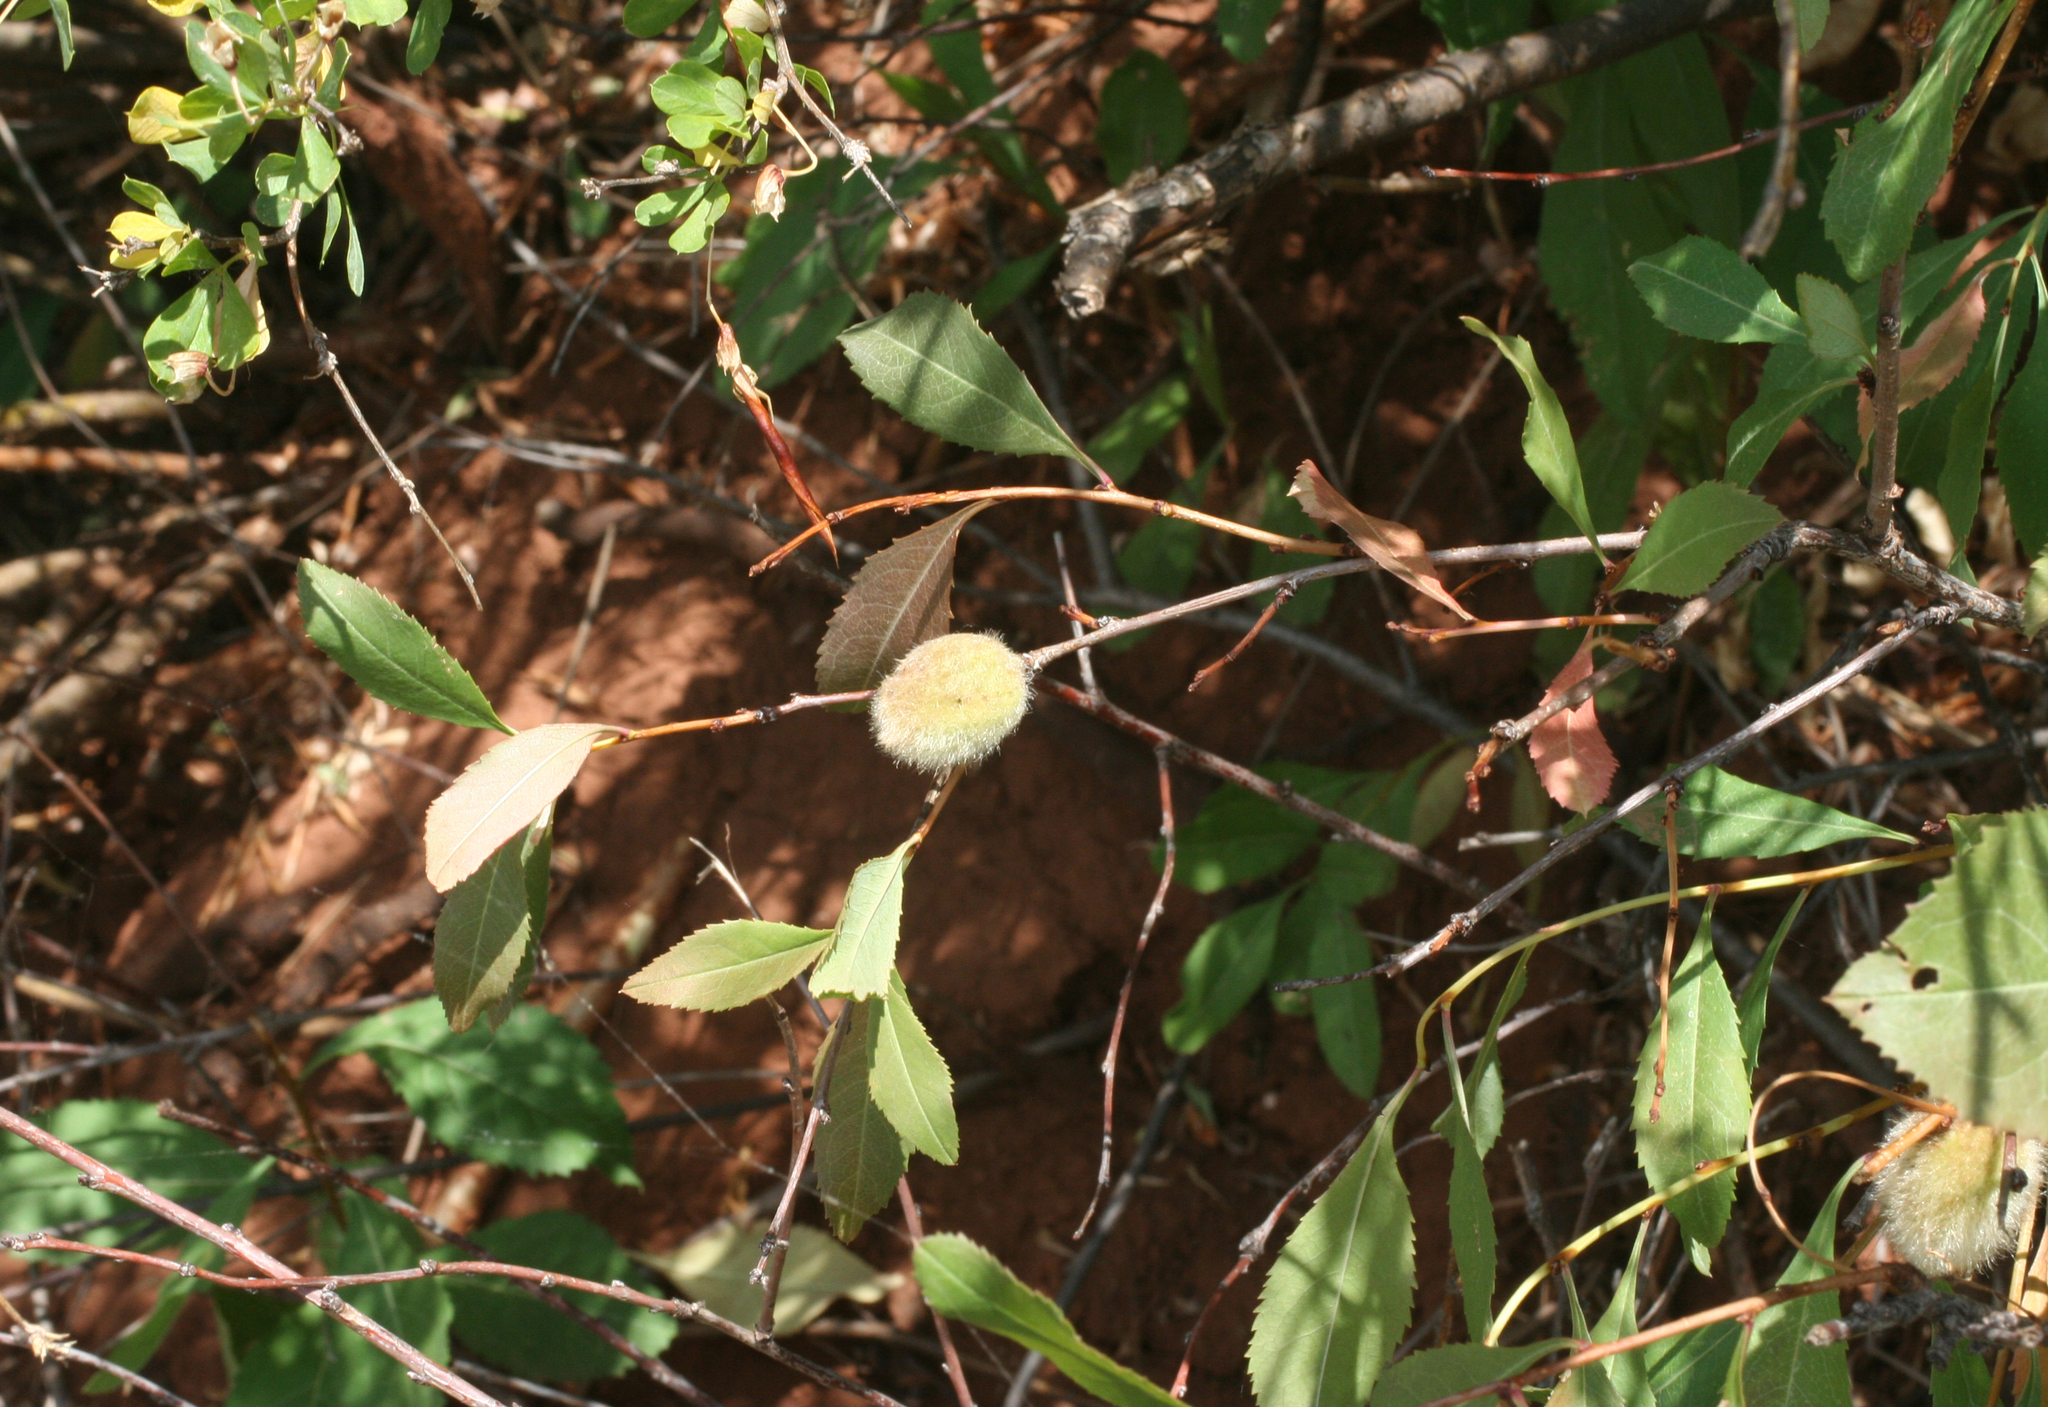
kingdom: Plantae
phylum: Tracheophyta
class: Magnoliopsida
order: Rosales
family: Rosaceae
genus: Prunus
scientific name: Prunus tenella
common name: Dwarf russian almond
